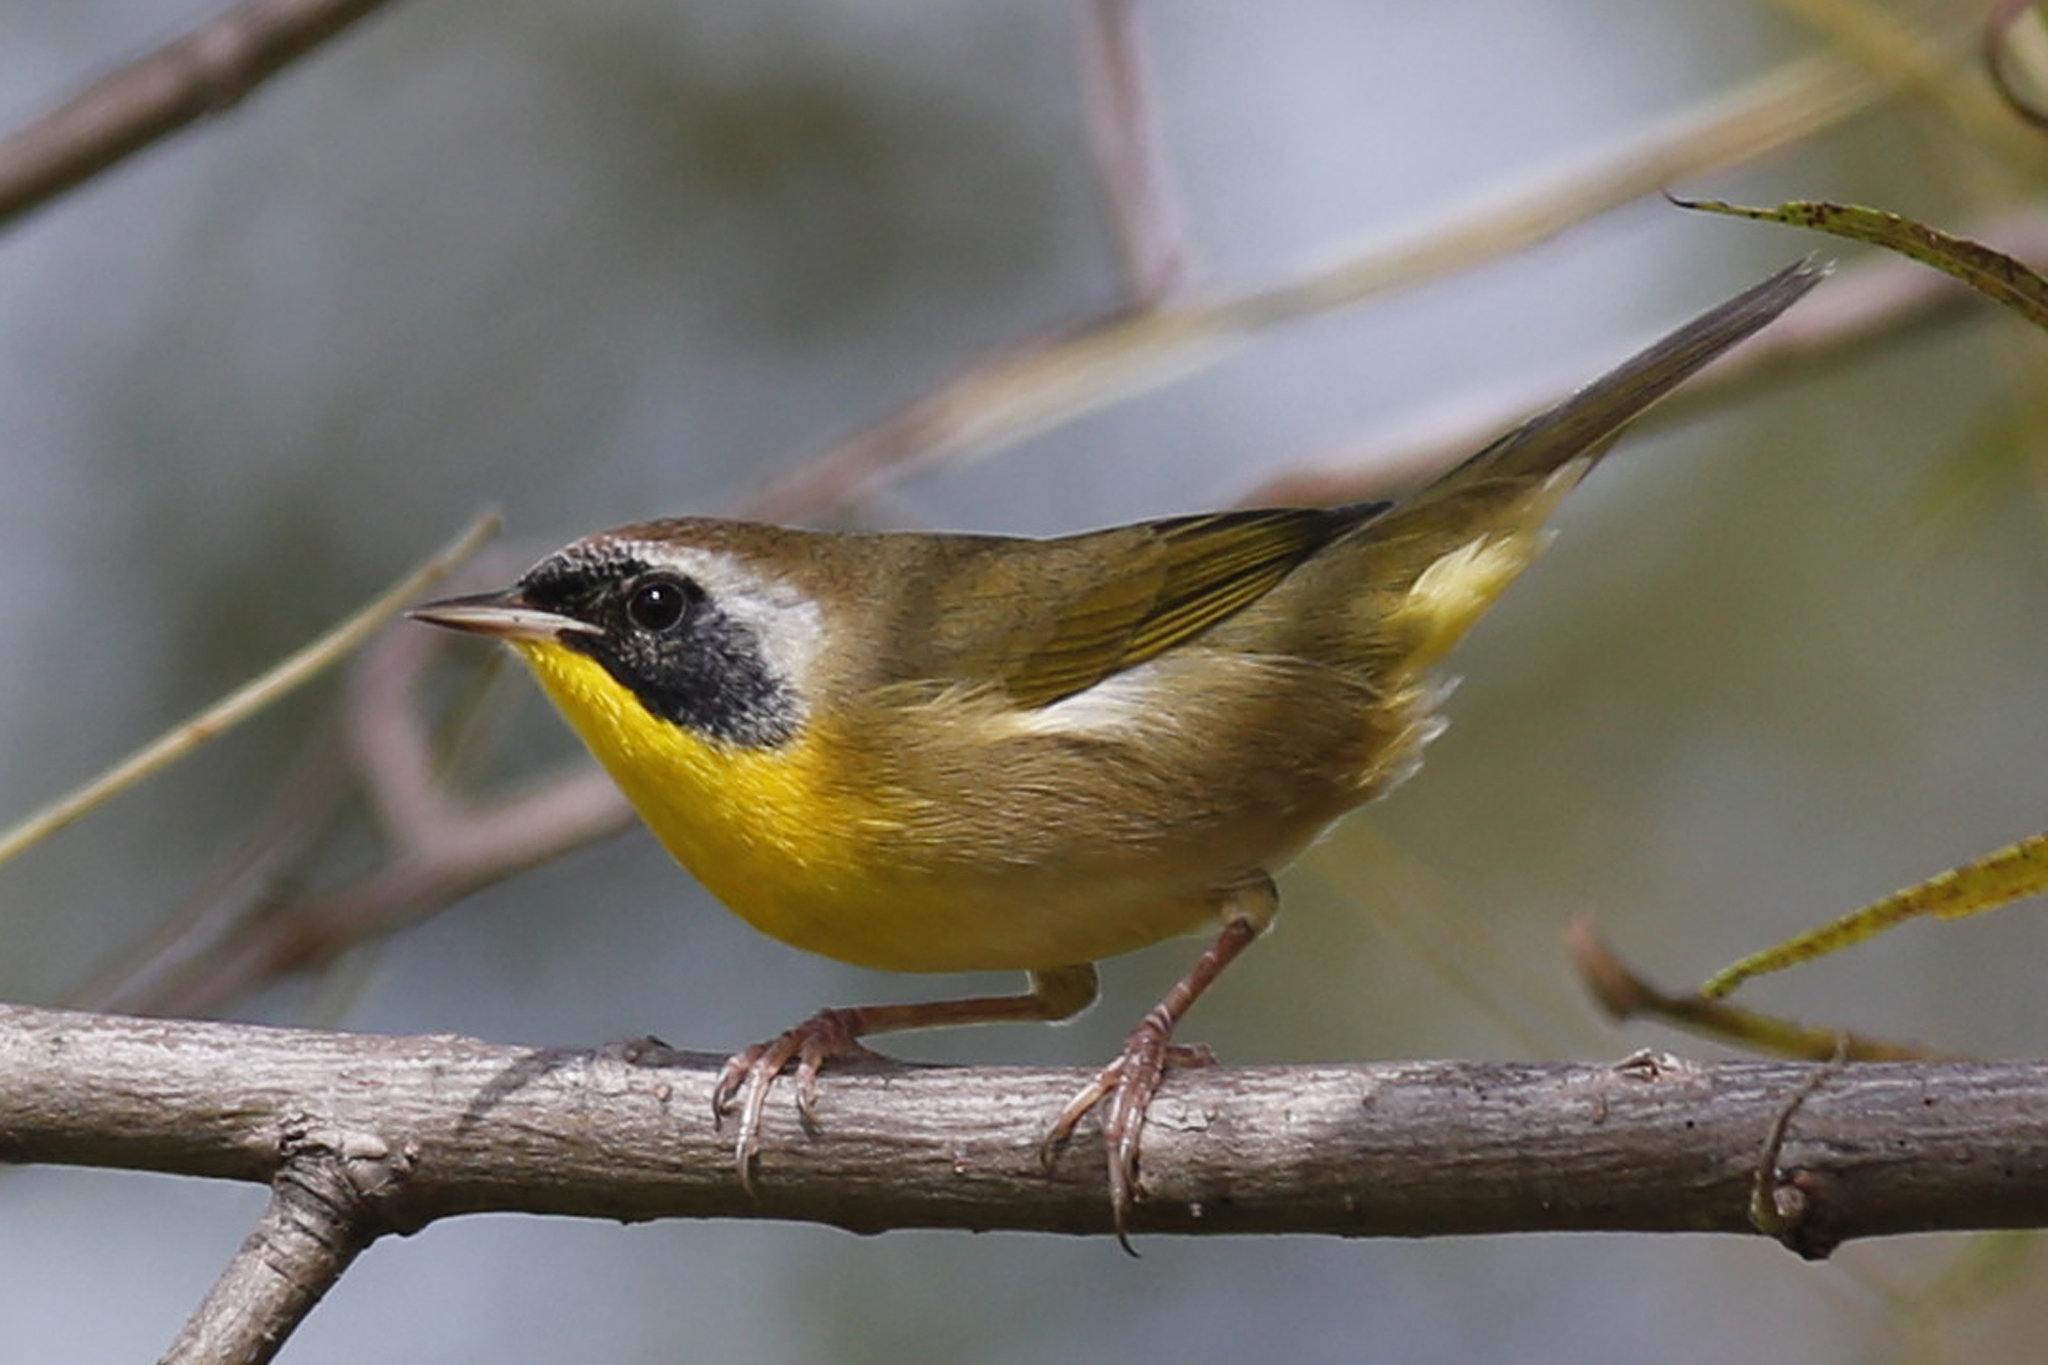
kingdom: Animalia
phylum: Chordata
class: Aves
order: Passeriformes
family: Parulidae
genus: Geothlypis
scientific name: Geothlypis trichas
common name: Common yellowthroat
